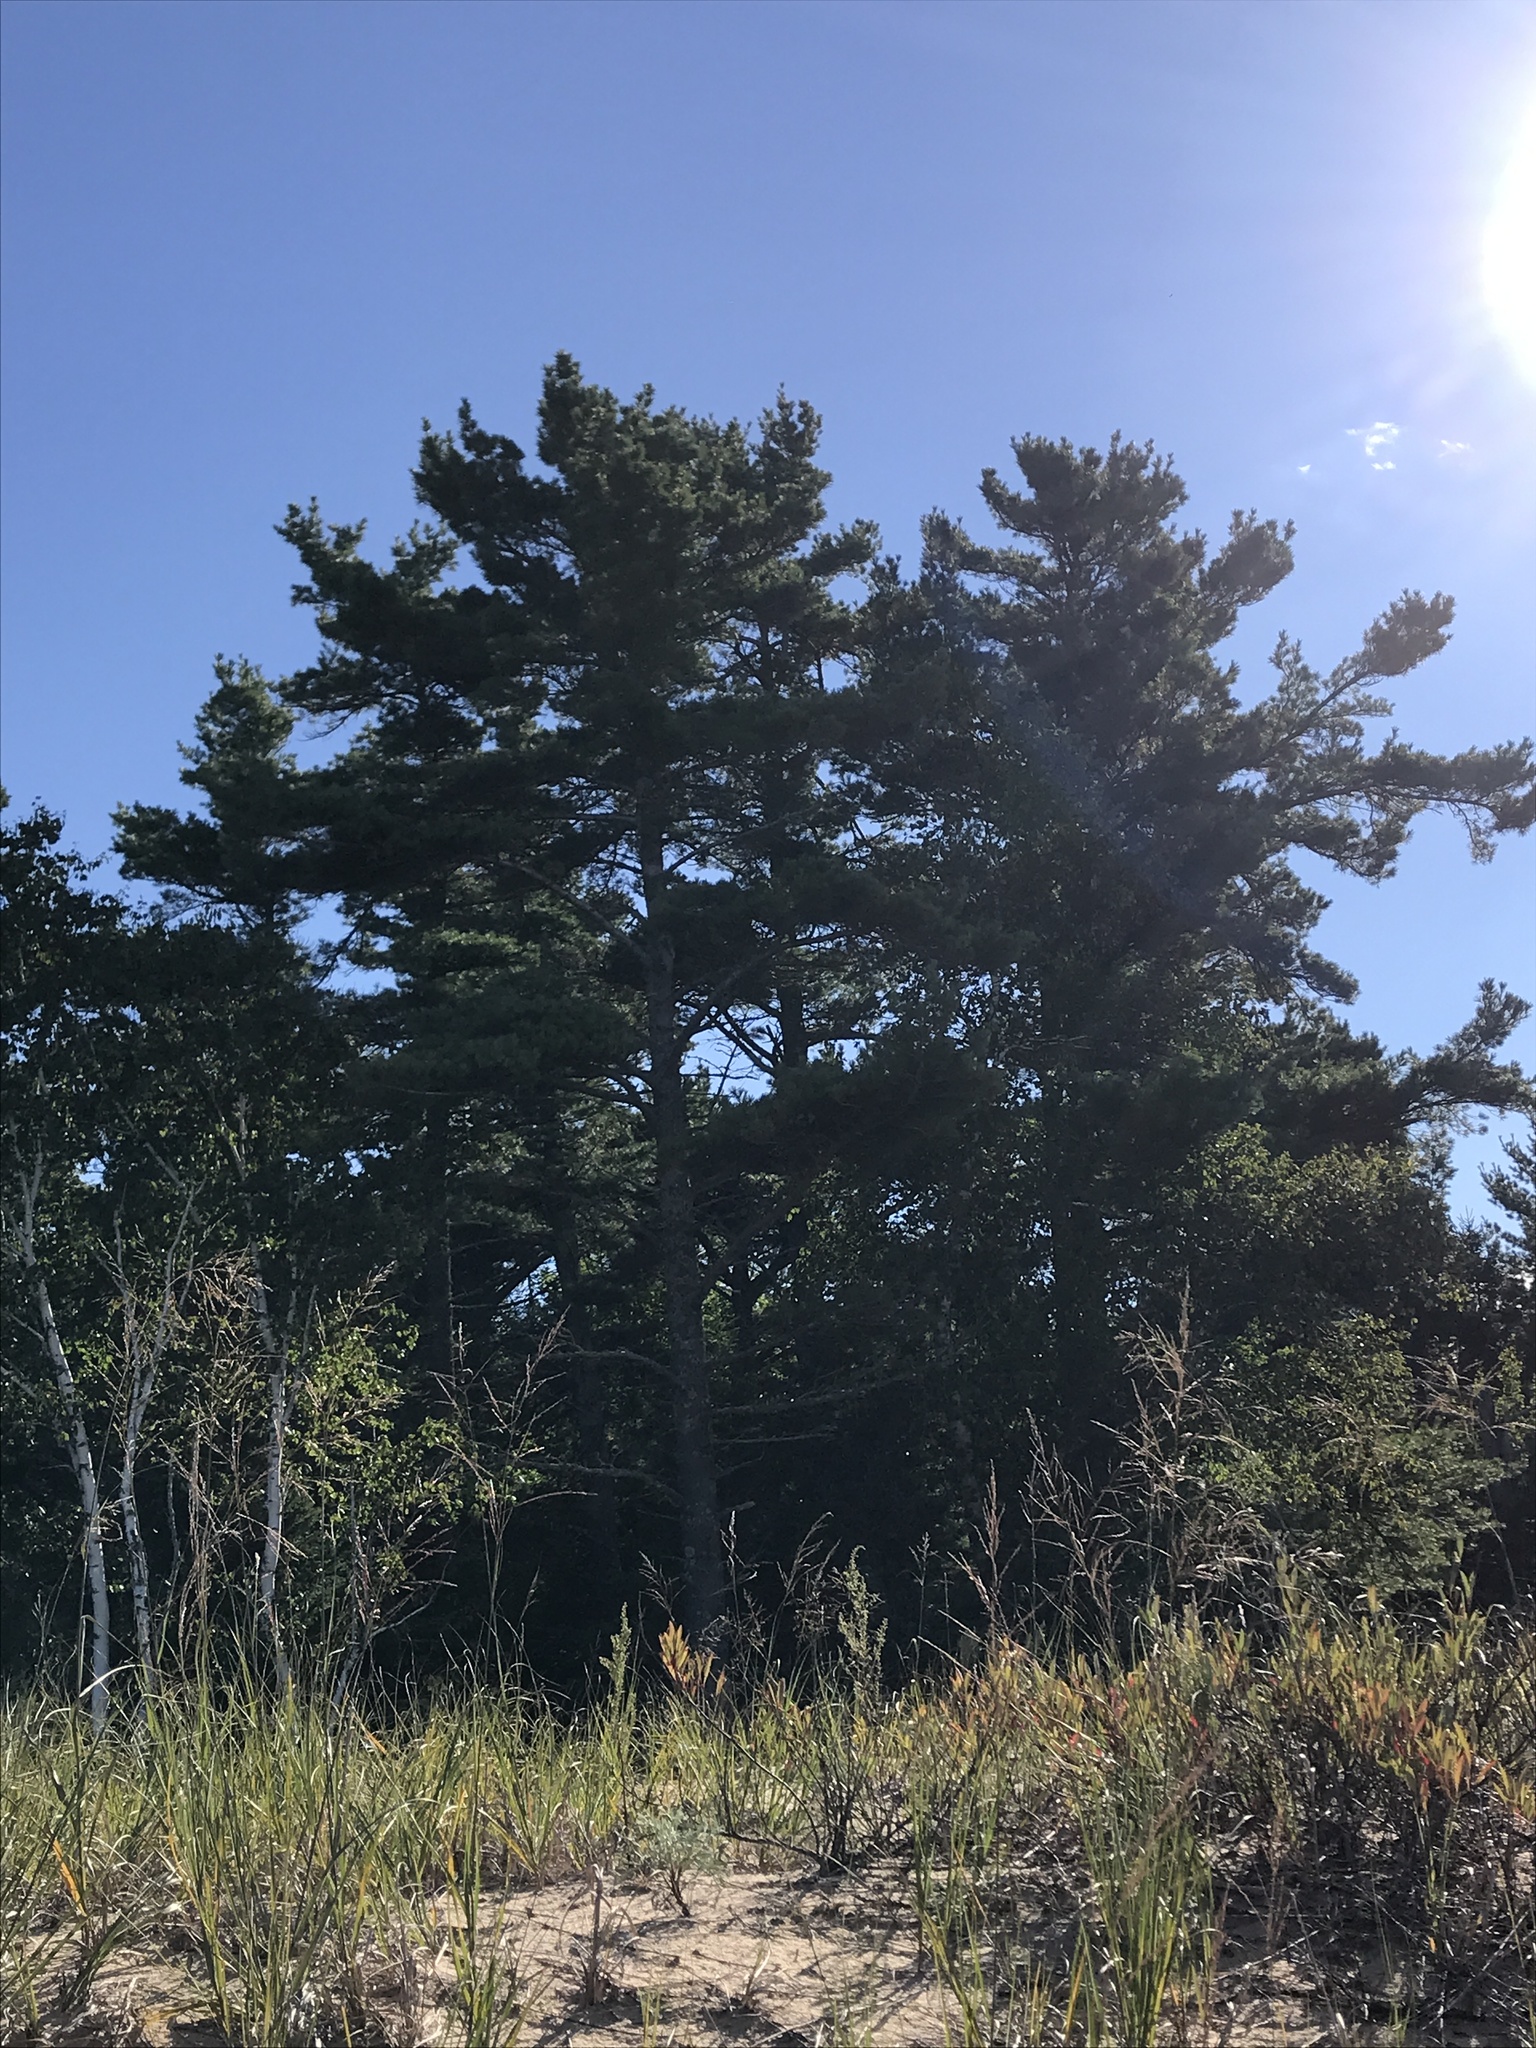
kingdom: Plantae
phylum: Tracheophyta
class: Pinopsida
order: Pinales
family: Pinaceae
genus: Pinus
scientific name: Pinus strobus
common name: Weymouth pine
